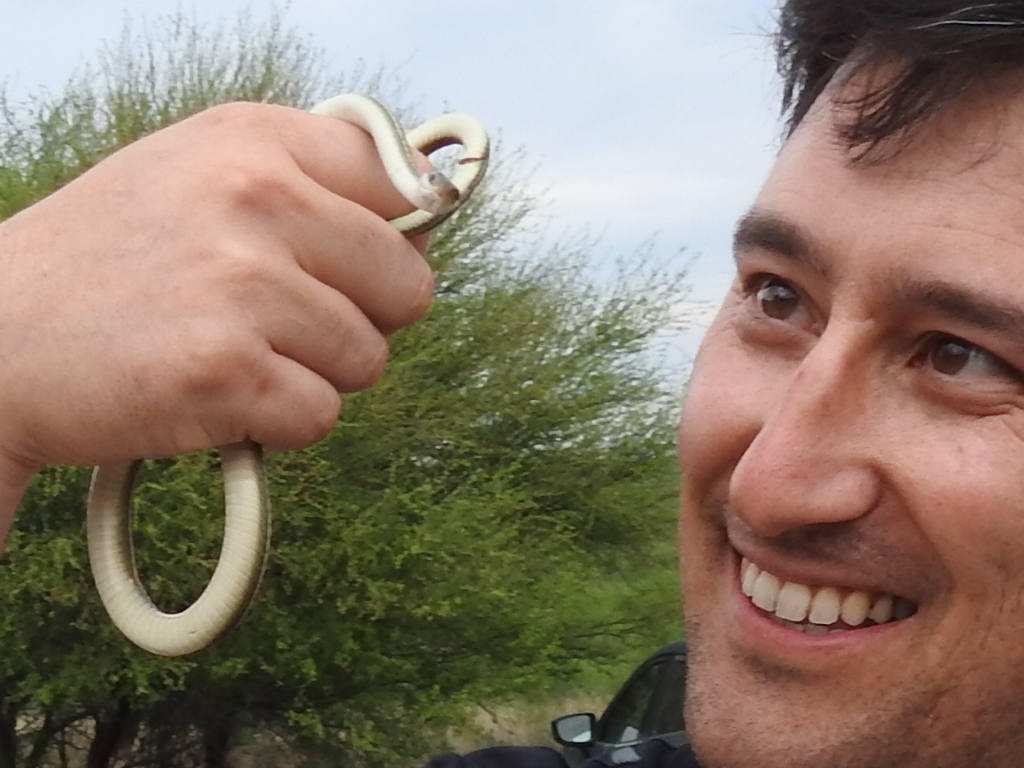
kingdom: Animalia
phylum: Chordata
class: Squamata
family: Colubridae
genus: Thamnophis
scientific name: Thamnophis proximus
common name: Western ribbon snake
